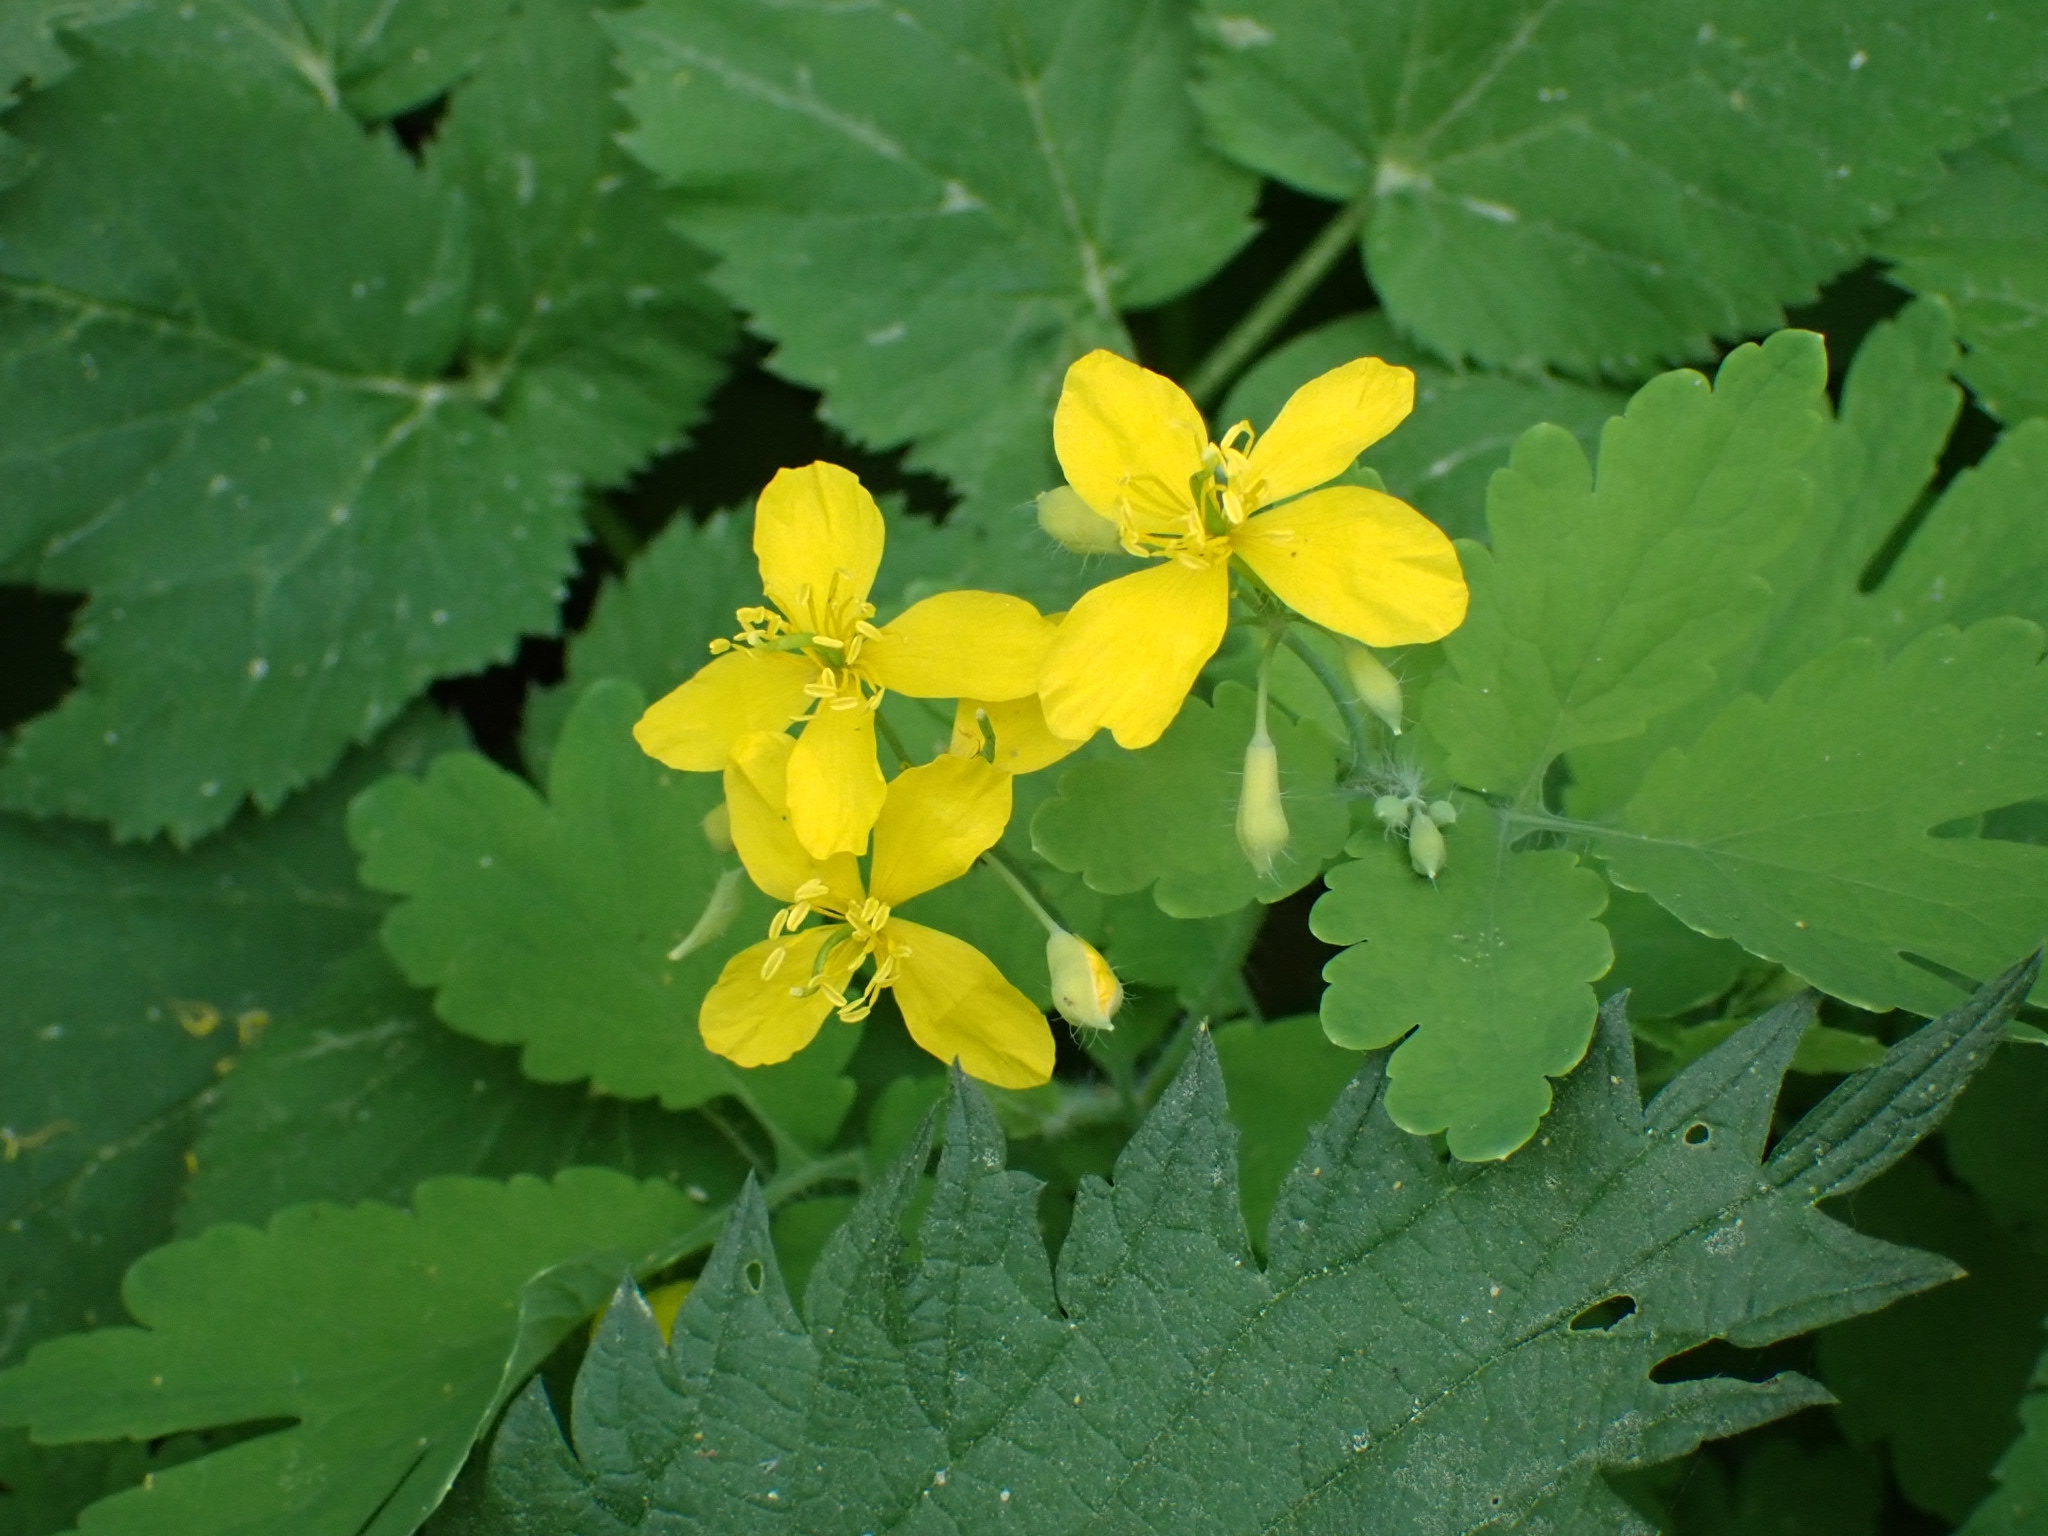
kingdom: Plantae
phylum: Tracheophyta
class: Magnoliopsida
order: Ranunculales
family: Papaveraceae
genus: Chelidonium
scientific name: Chelidonium majus
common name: Greater celandine
